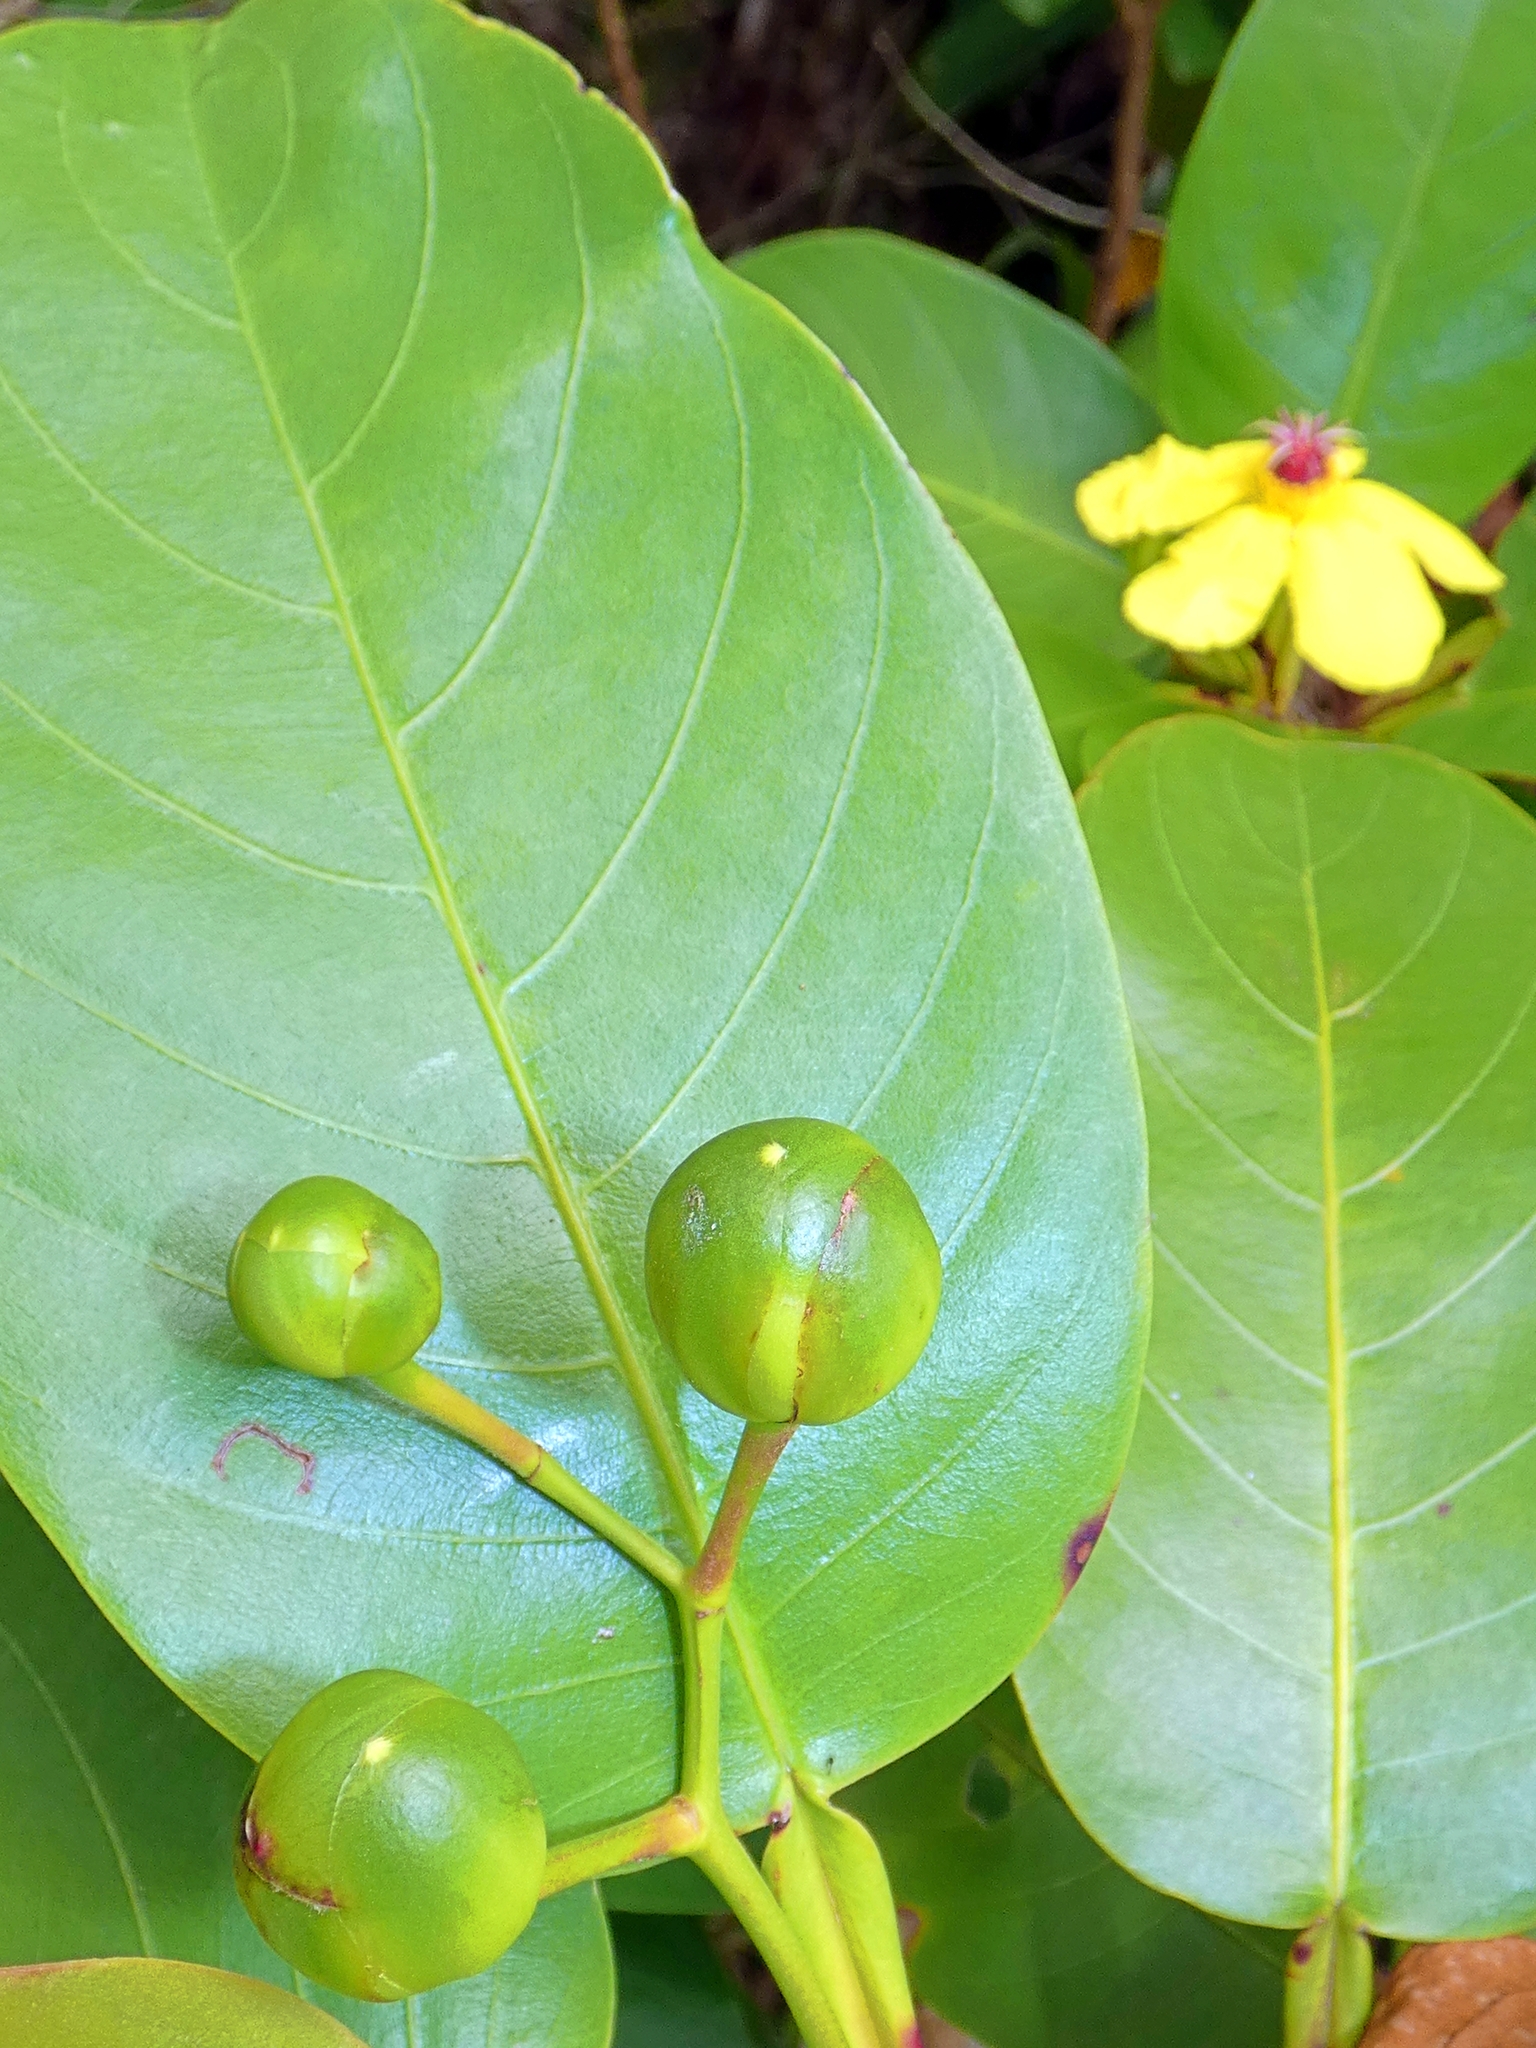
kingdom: Plantae
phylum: Tracheophyta
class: Magnoliopsida
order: Dilleniales
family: Dilleniaceae
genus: Dillenia
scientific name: Dillenia alata
